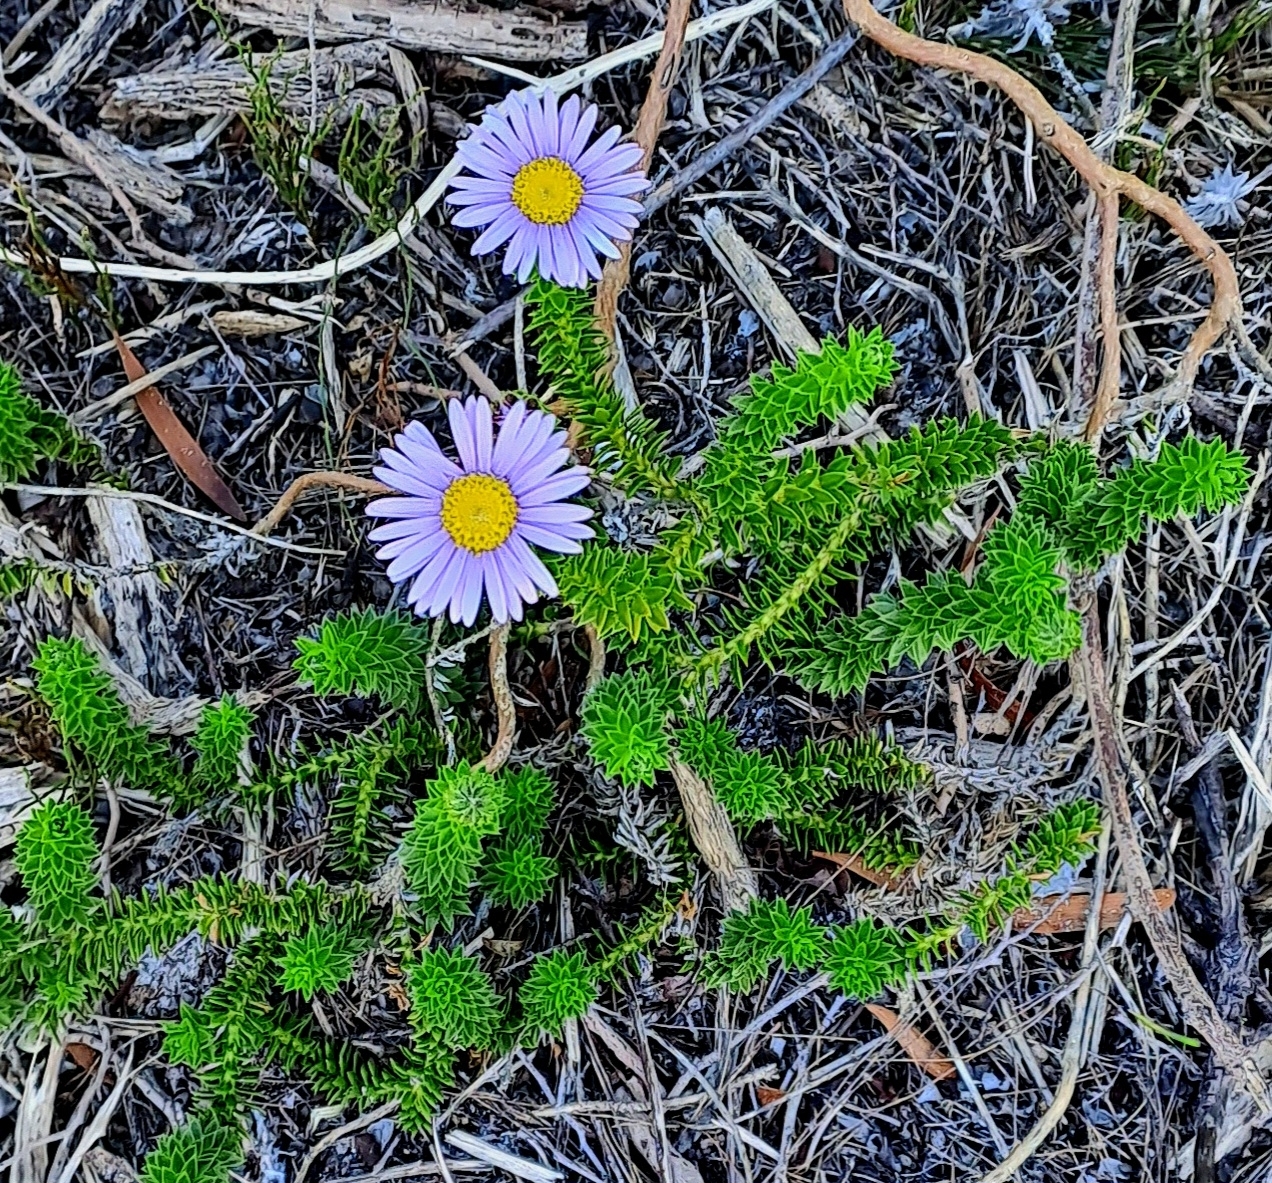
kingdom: Plantae
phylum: Tracheophyta
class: Magnoliopsida
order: Asterales
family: Asteraceae
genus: Felicia
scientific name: Felicia echinata
